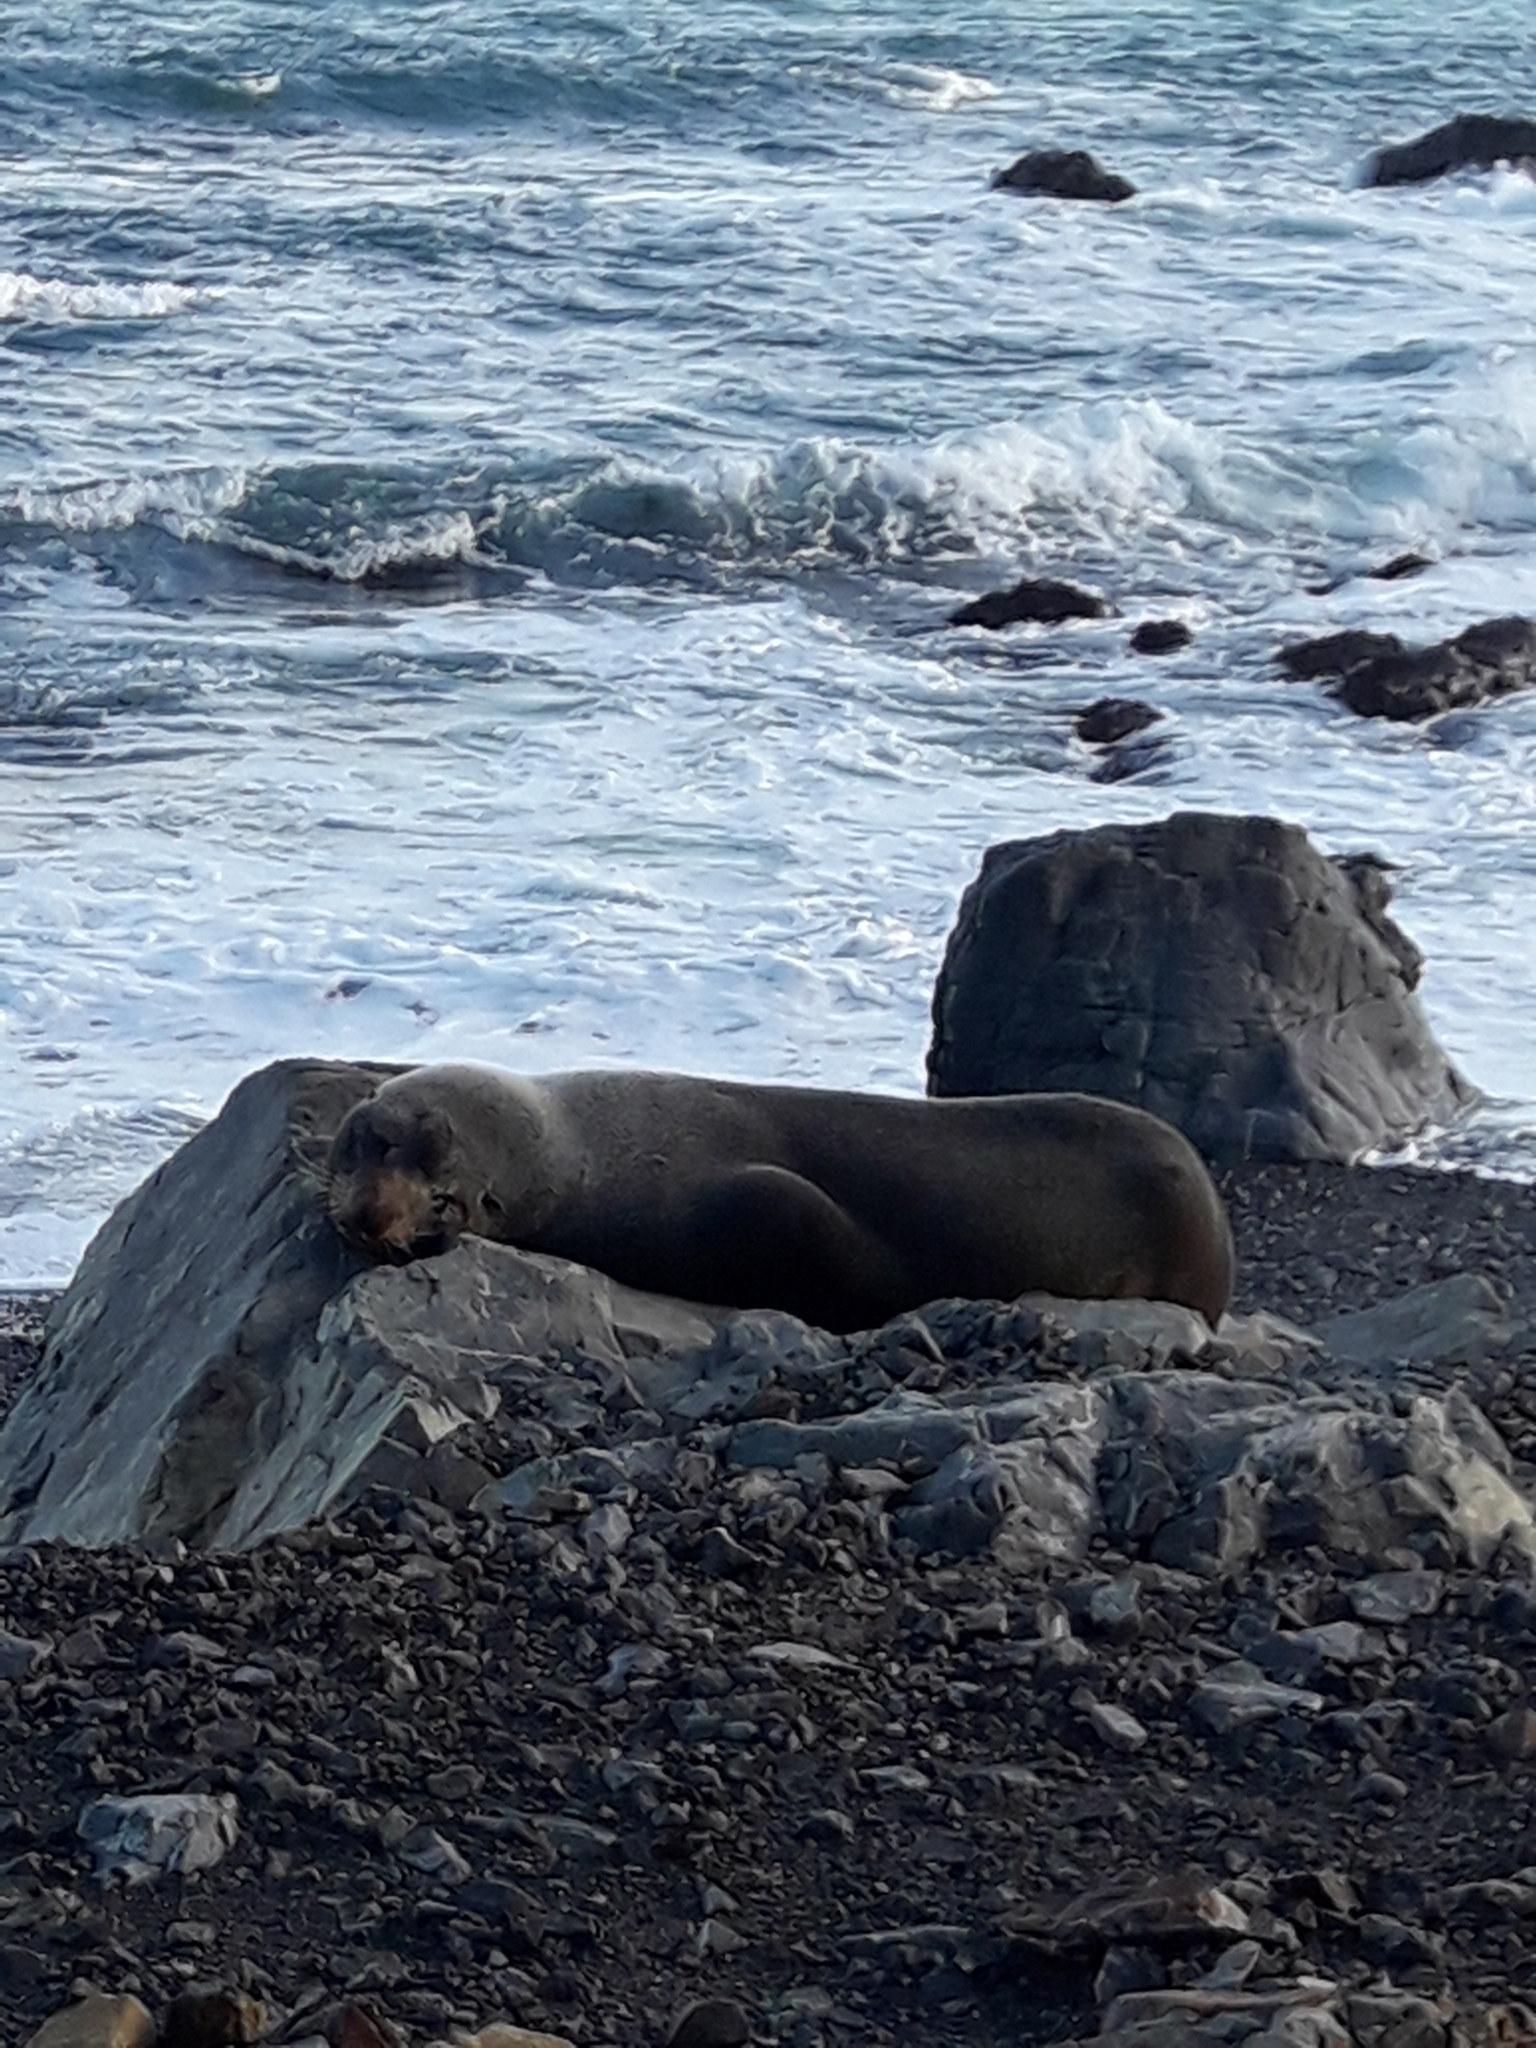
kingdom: Animalia
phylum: Chordata
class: Mammalia
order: Carnivora
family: Otariidae
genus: Arctocephalus
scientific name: Arctocephalus forsteri
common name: New zealand fur seal
